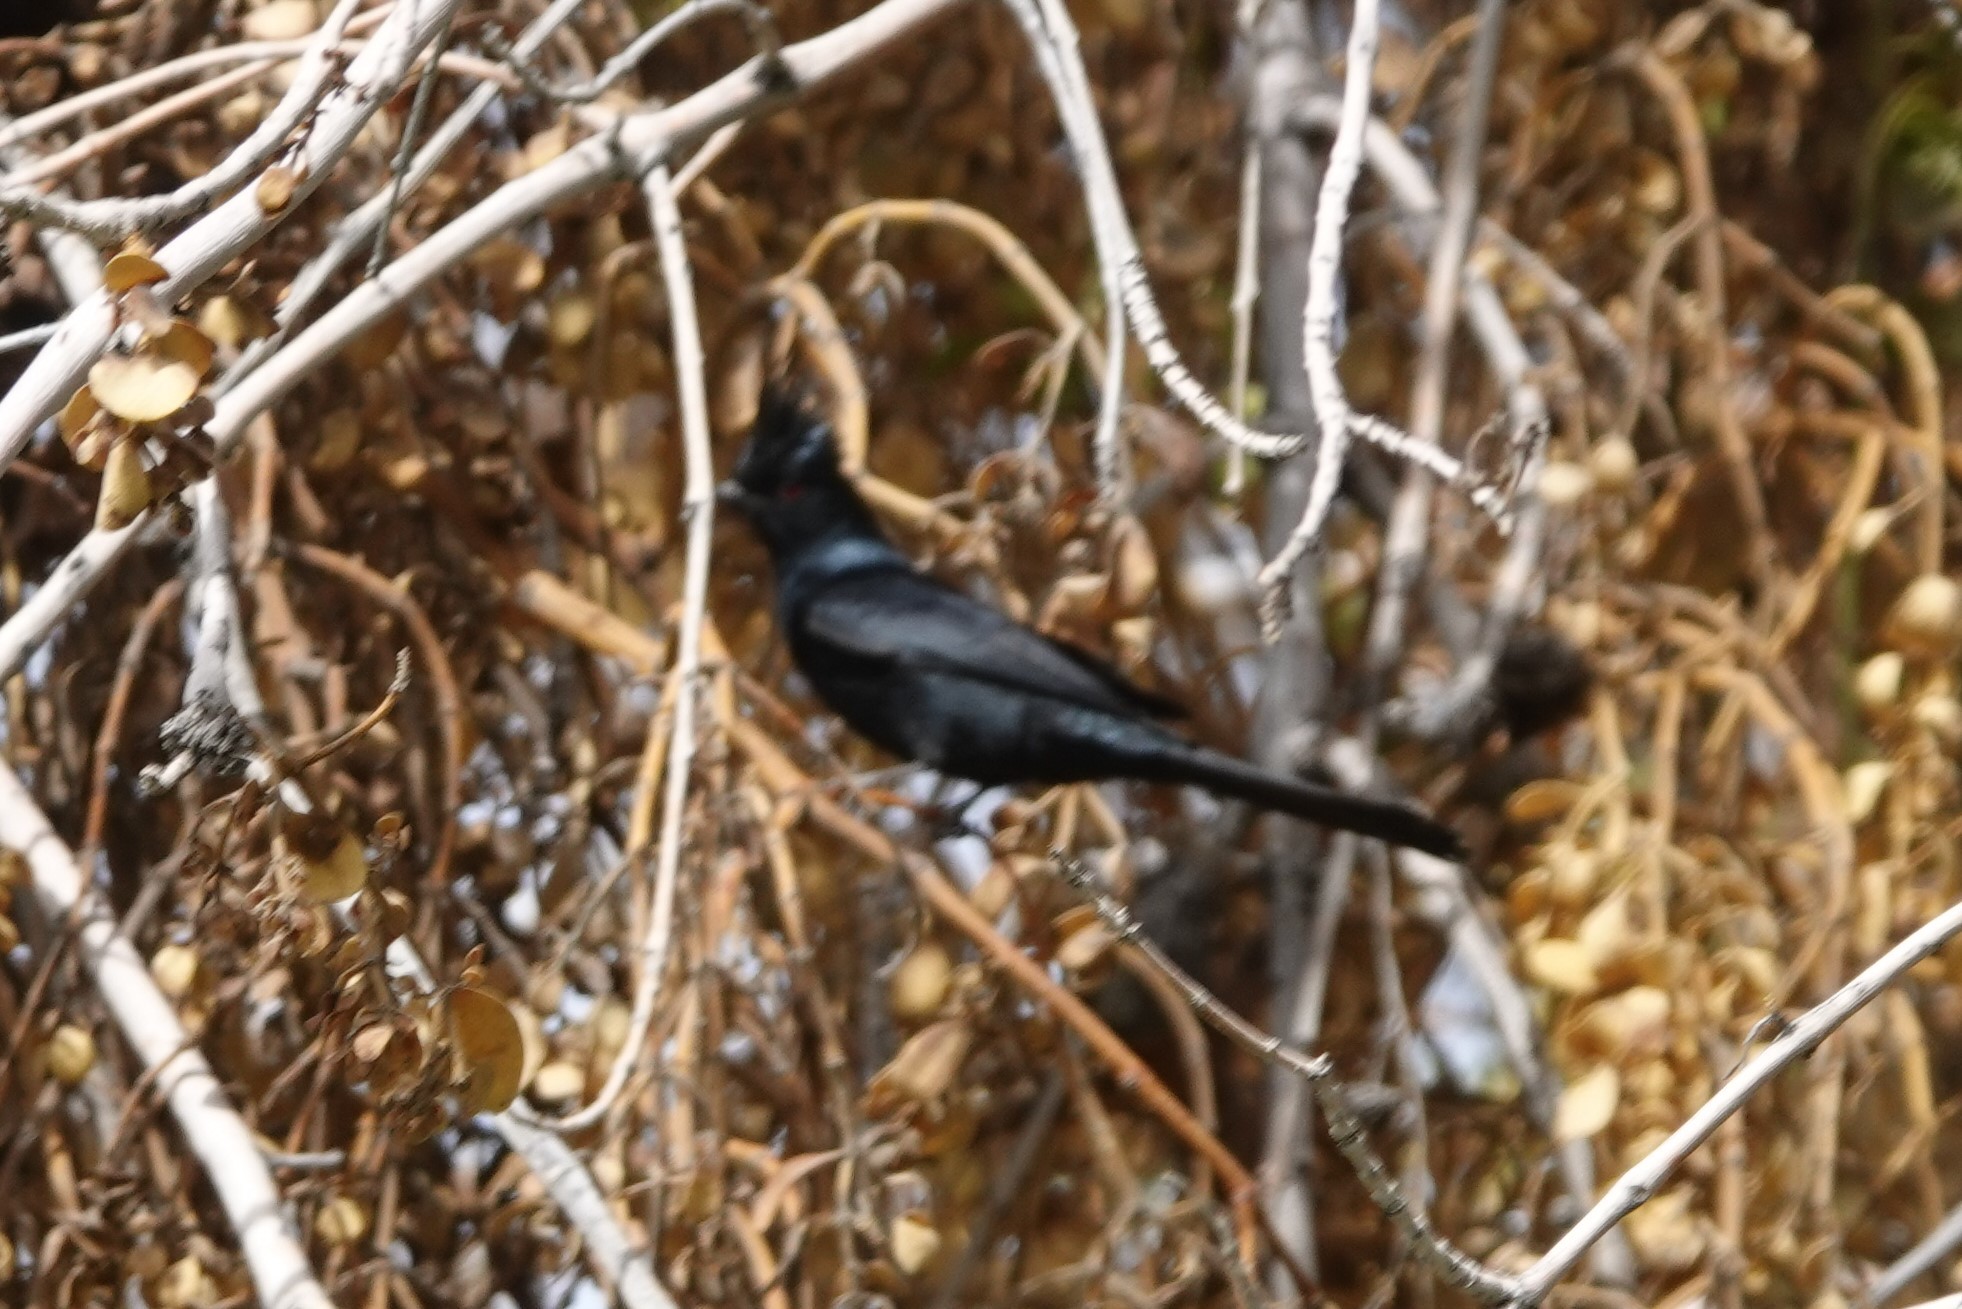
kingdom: Animalia
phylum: Chordata
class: Aves
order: Passeriformes
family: Ptilogonatidae
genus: Phainopepla
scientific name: Phainopepla nitens
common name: Phainopepla
